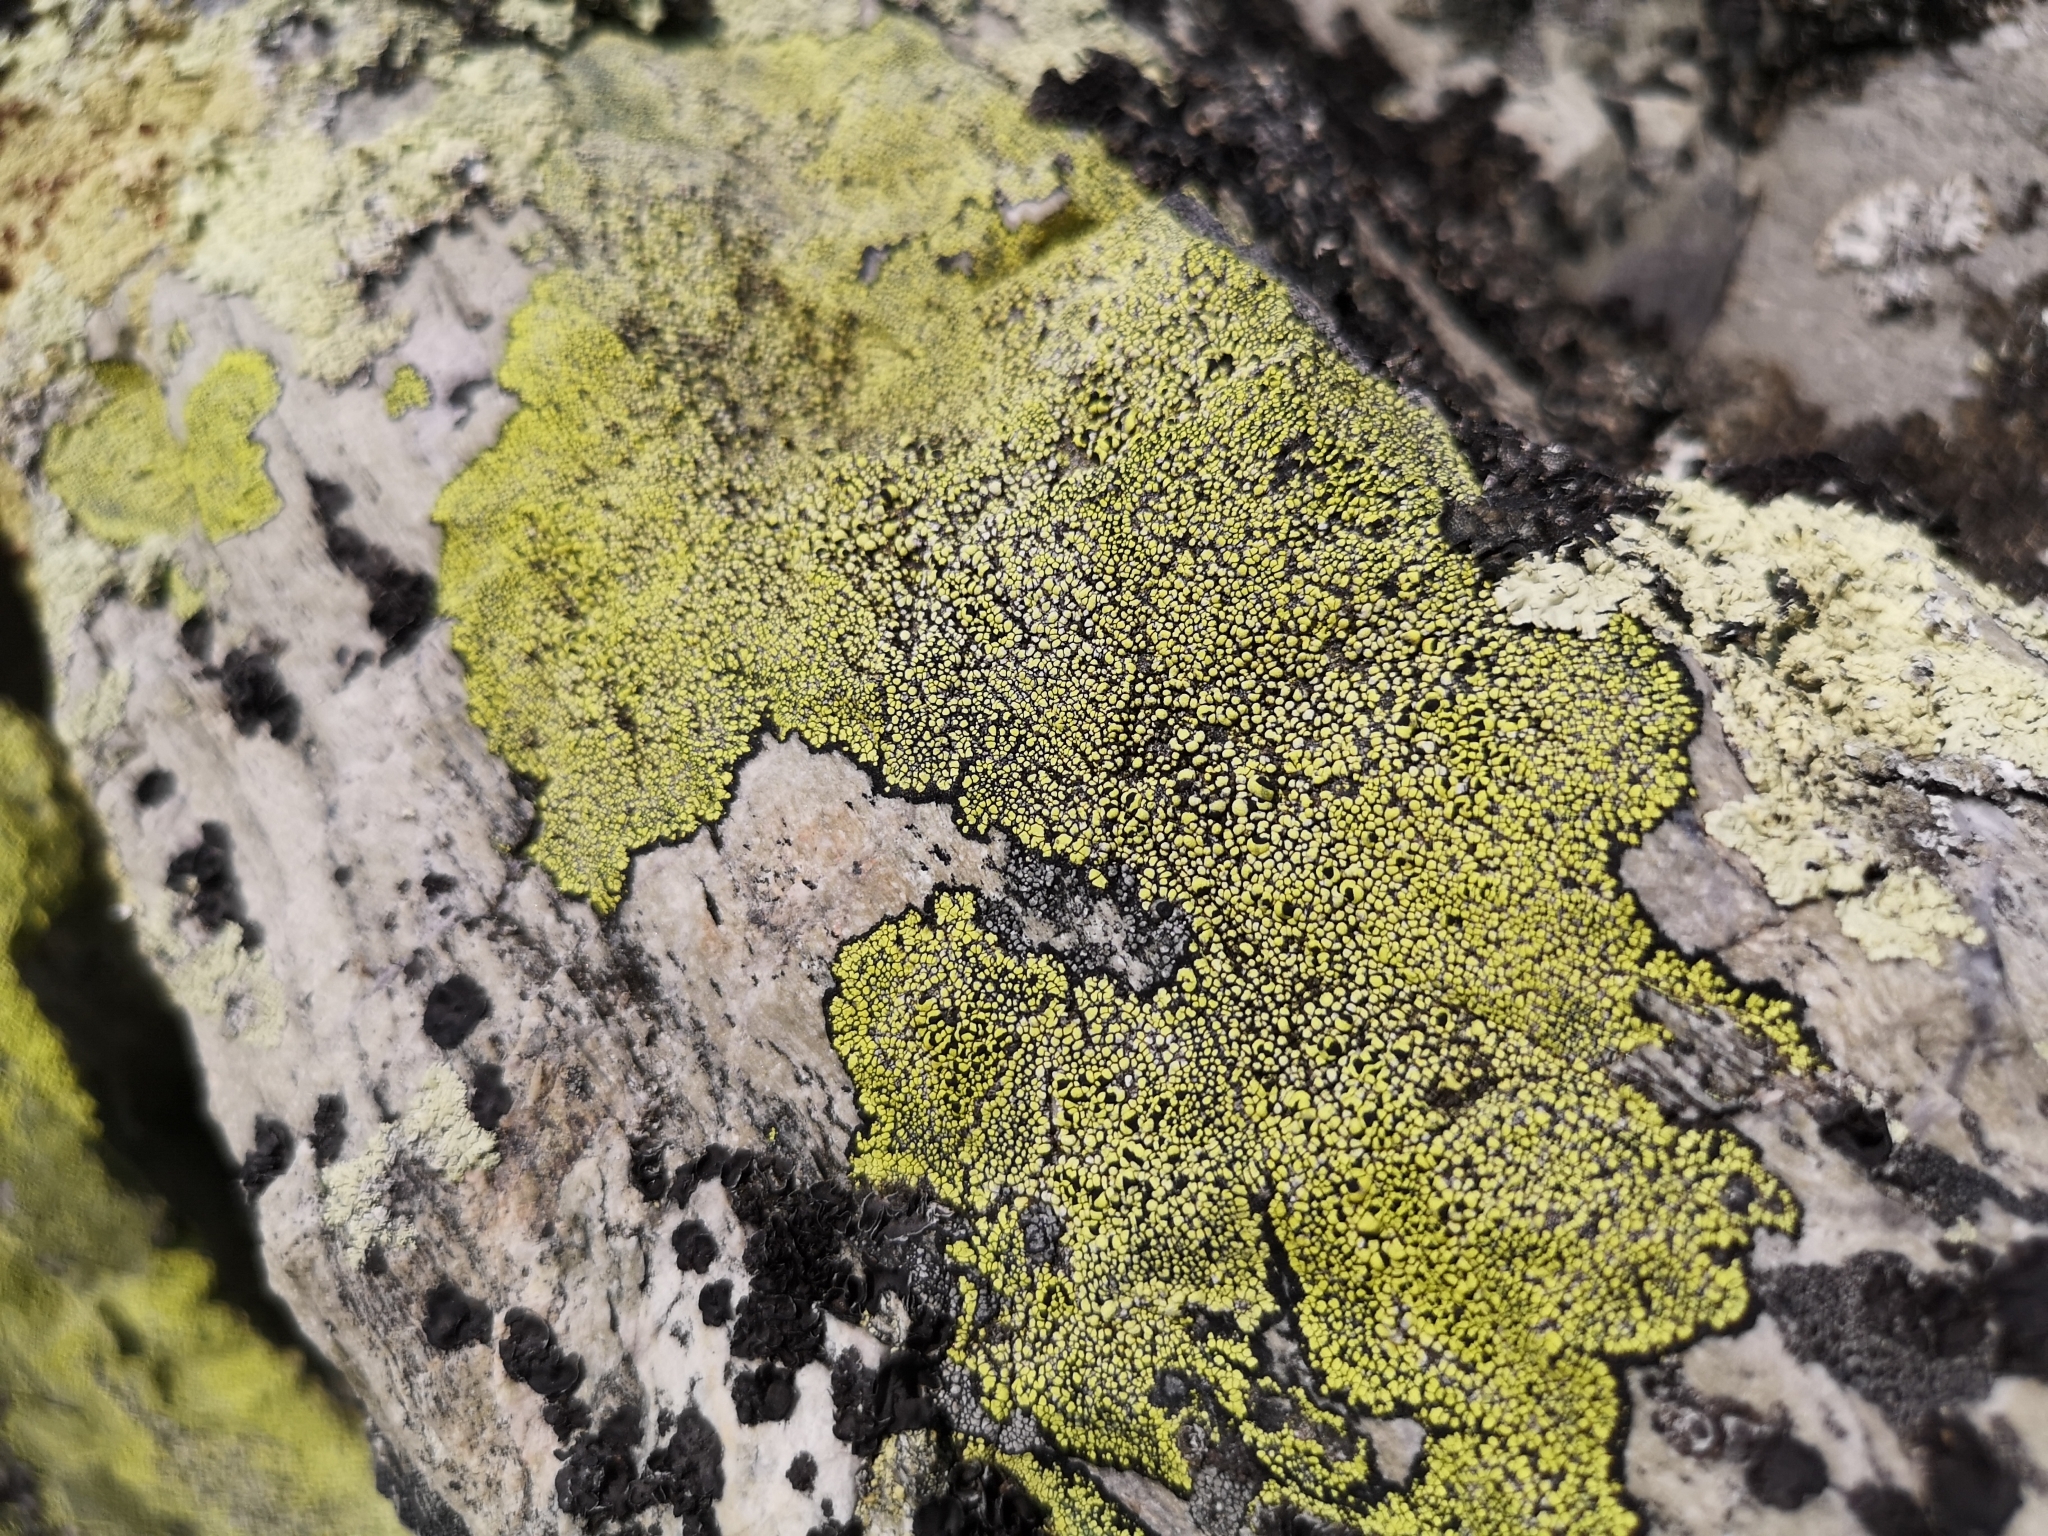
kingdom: Fungi
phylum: Ascomycota
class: Lecanoromycetes
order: Rhizocarpales
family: Rhizocarpaceae
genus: Rhizocarpon
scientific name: Rhizocarpon geographicum
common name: Yellow map lichen
